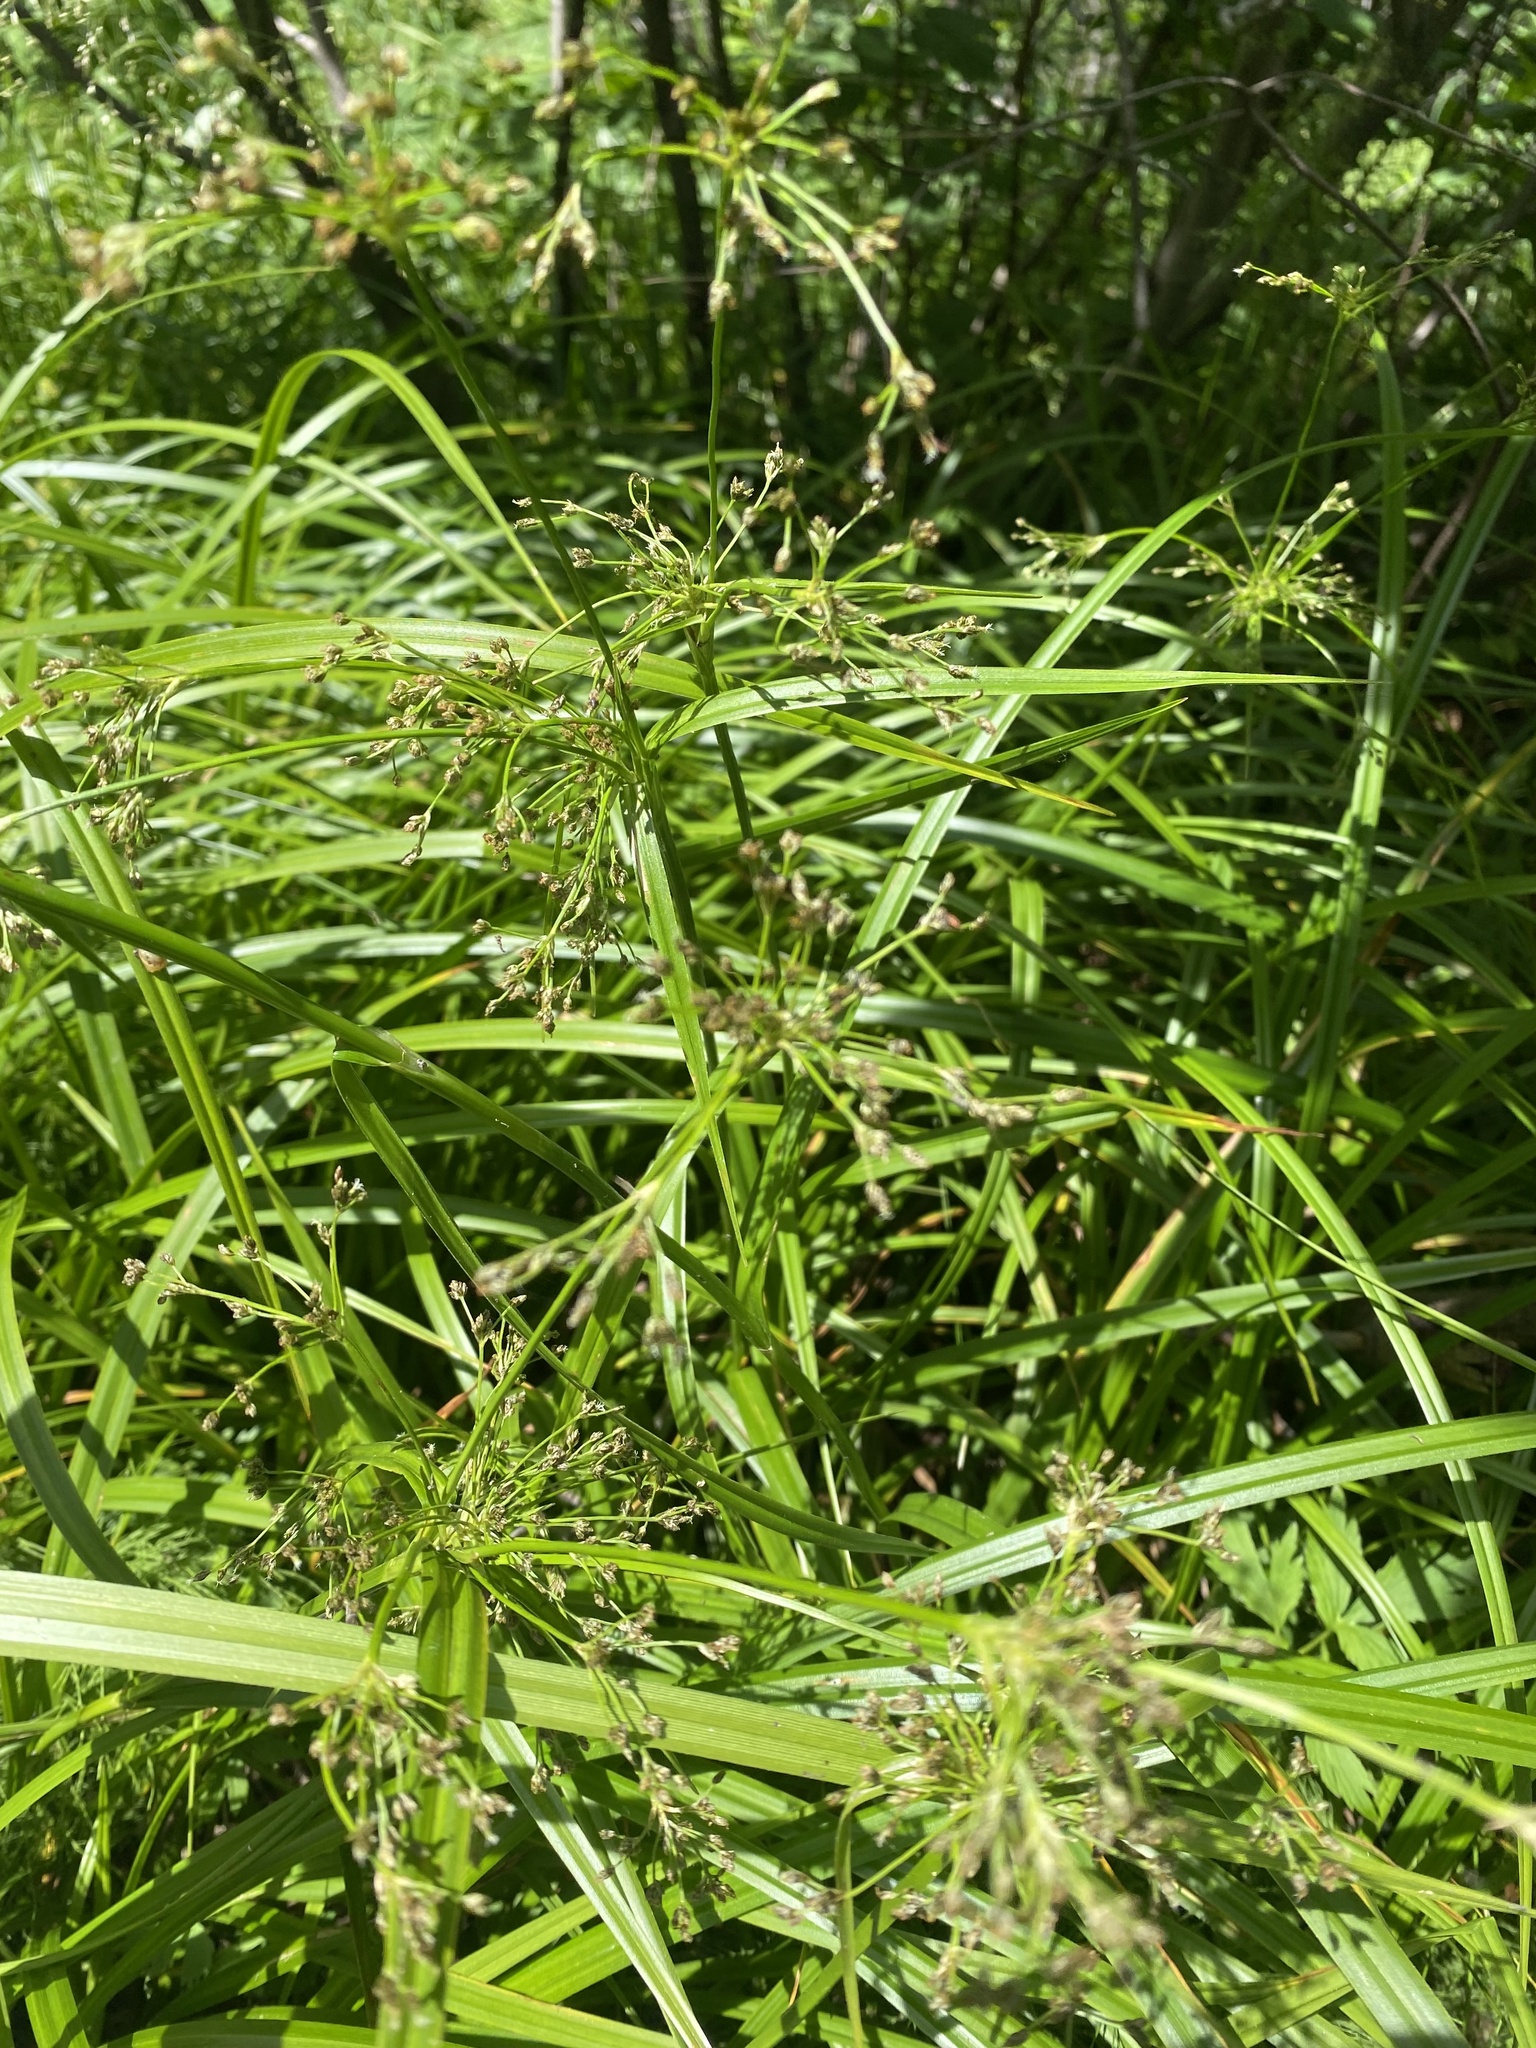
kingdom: Plantae
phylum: Tracheophyta
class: Liliopsida
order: Poales
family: Cyperaceae
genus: Scirpus
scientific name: Scirpus sylvaticus
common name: Wood club-rush
